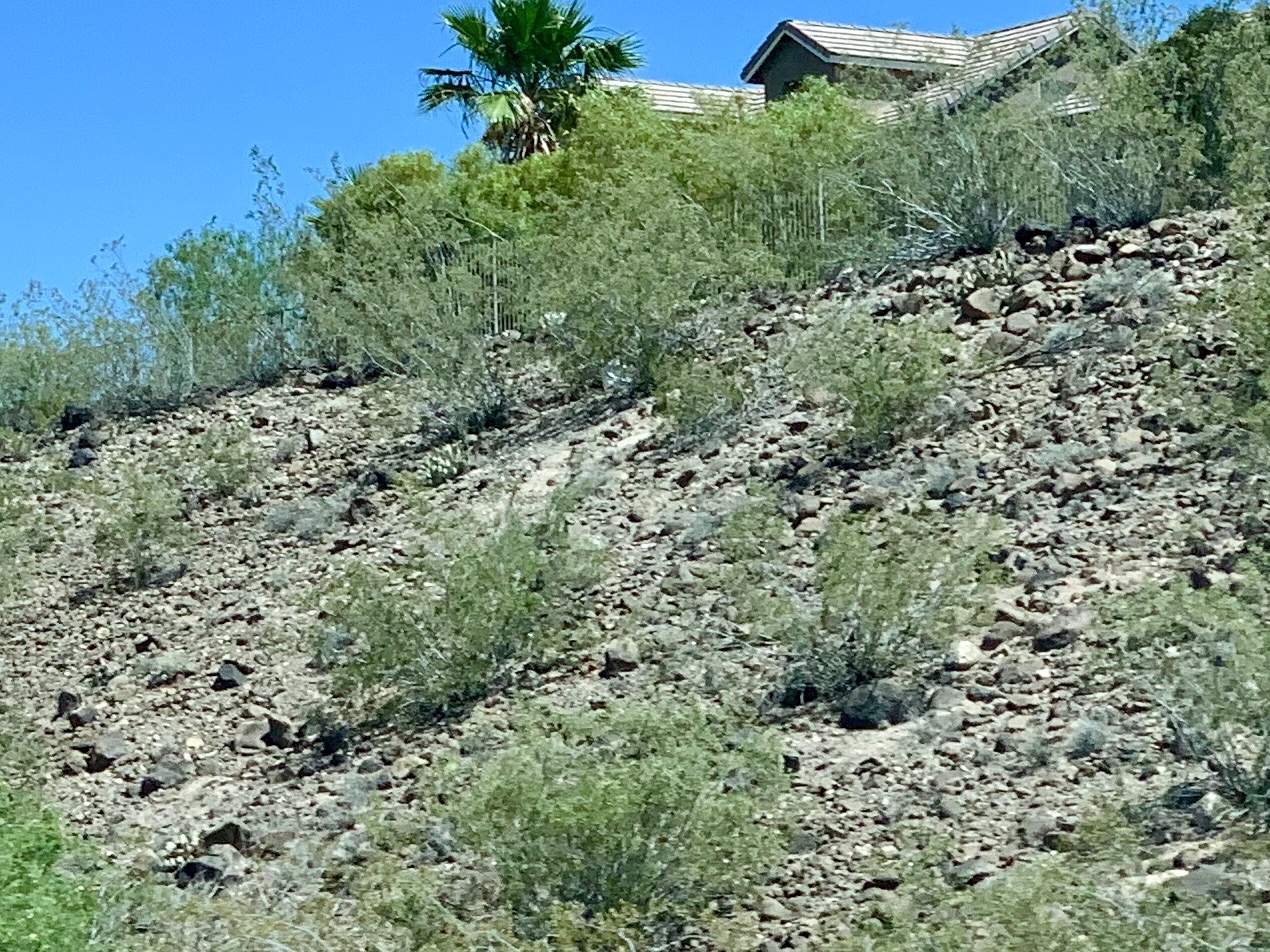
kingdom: Plantae
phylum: Tracheophyta
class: Magnoliopsida
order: Zygophyllales
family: Zygophyllaceae
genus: Larrea
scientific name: Larrea tridentata
